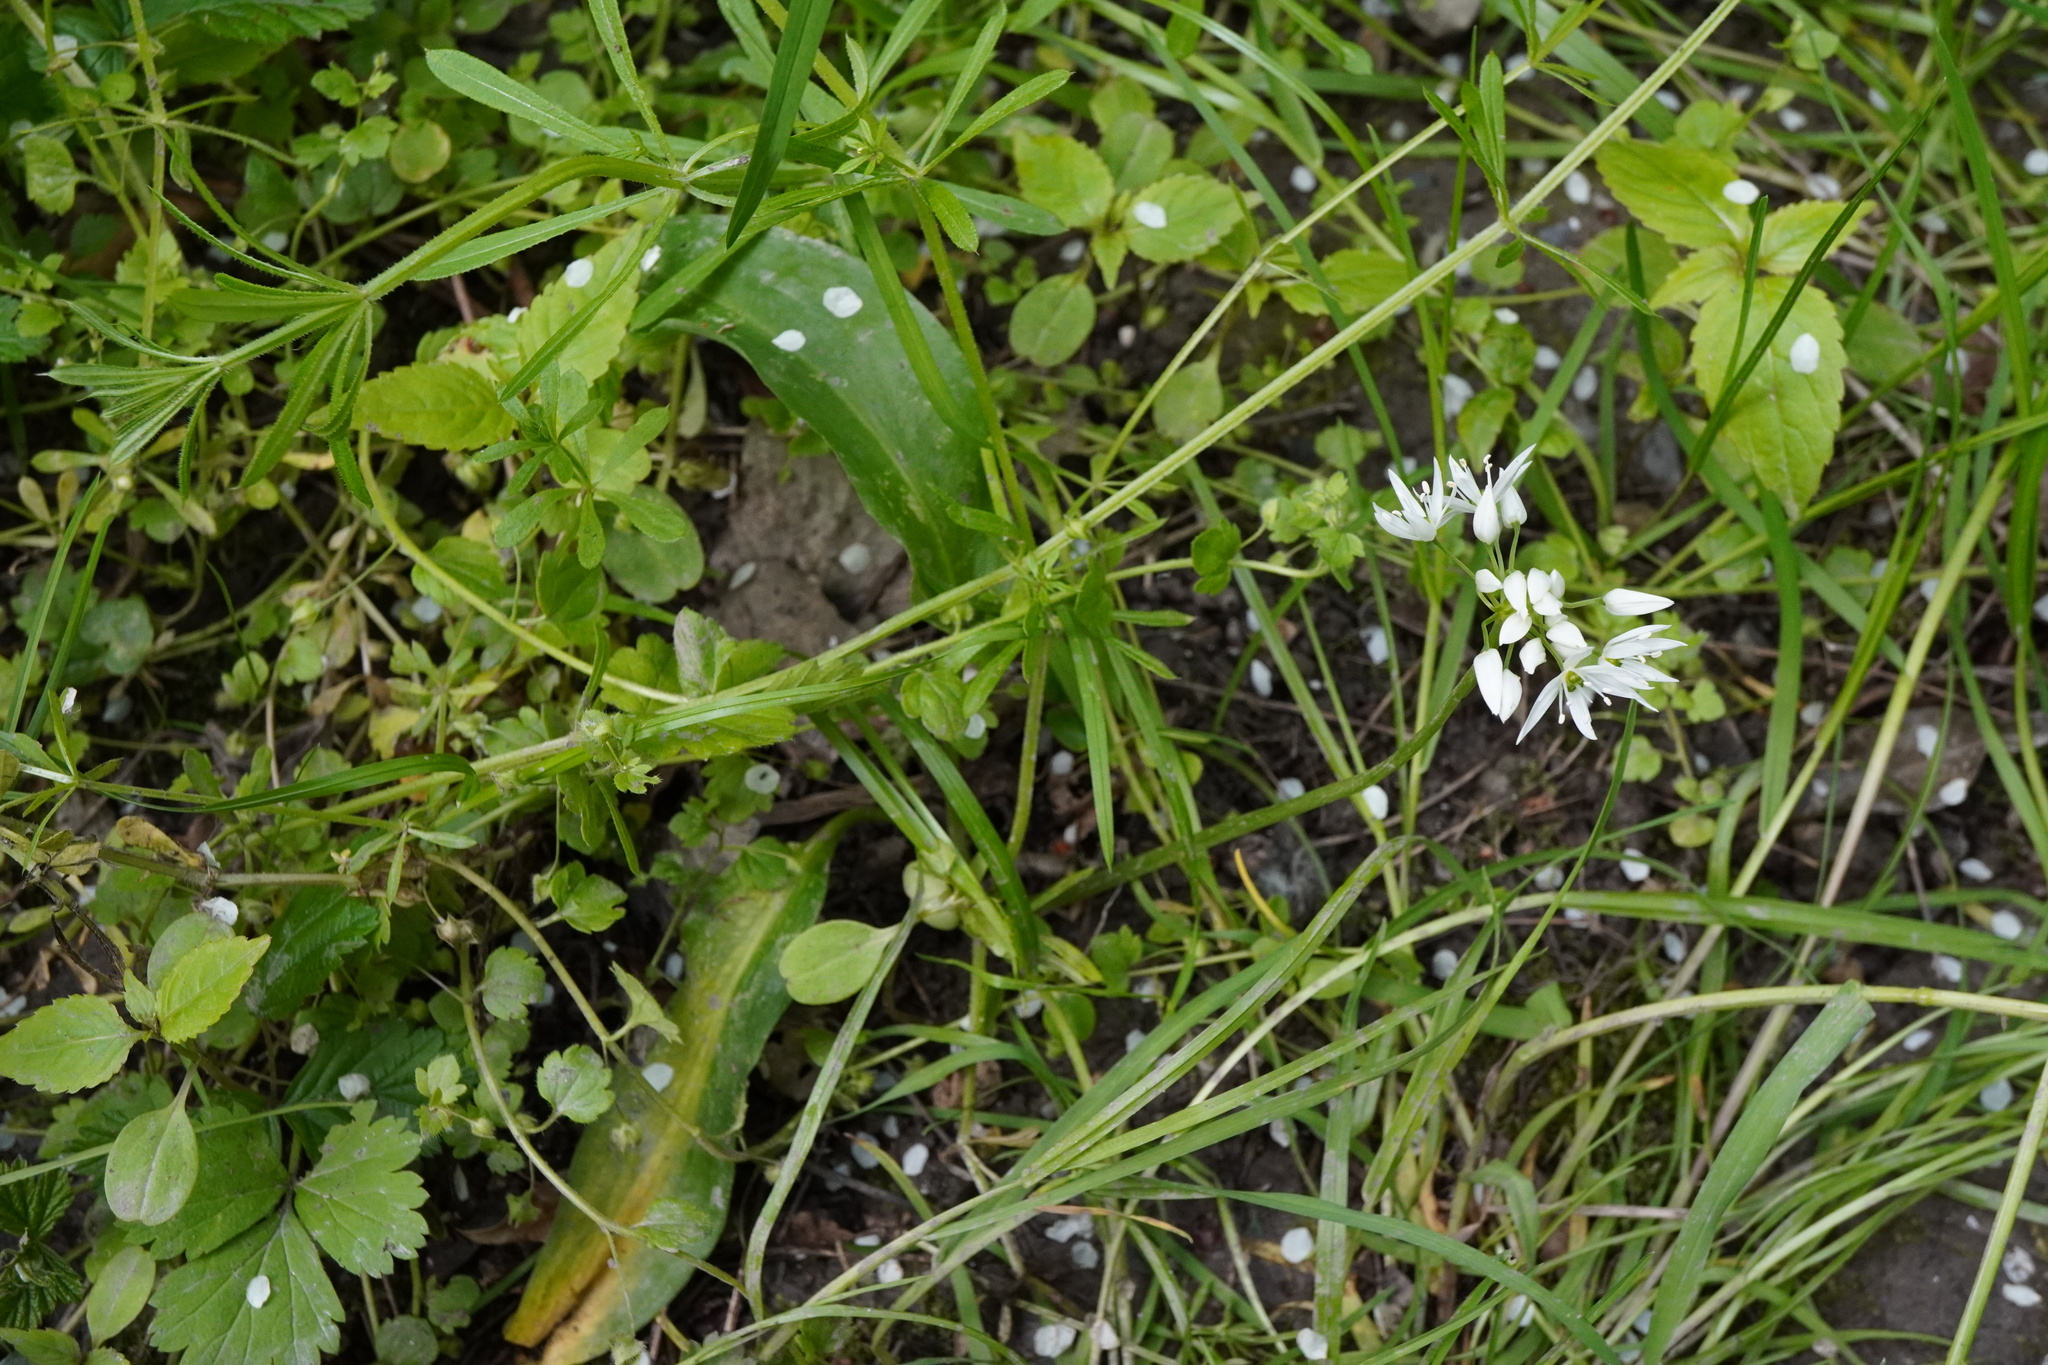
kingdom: Plantae
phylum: Tracheophyta
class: Liliopsida
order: Asparagales
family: Amaryllidaceae
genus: Allium
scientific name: Allium ursinum
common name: Ramsons
